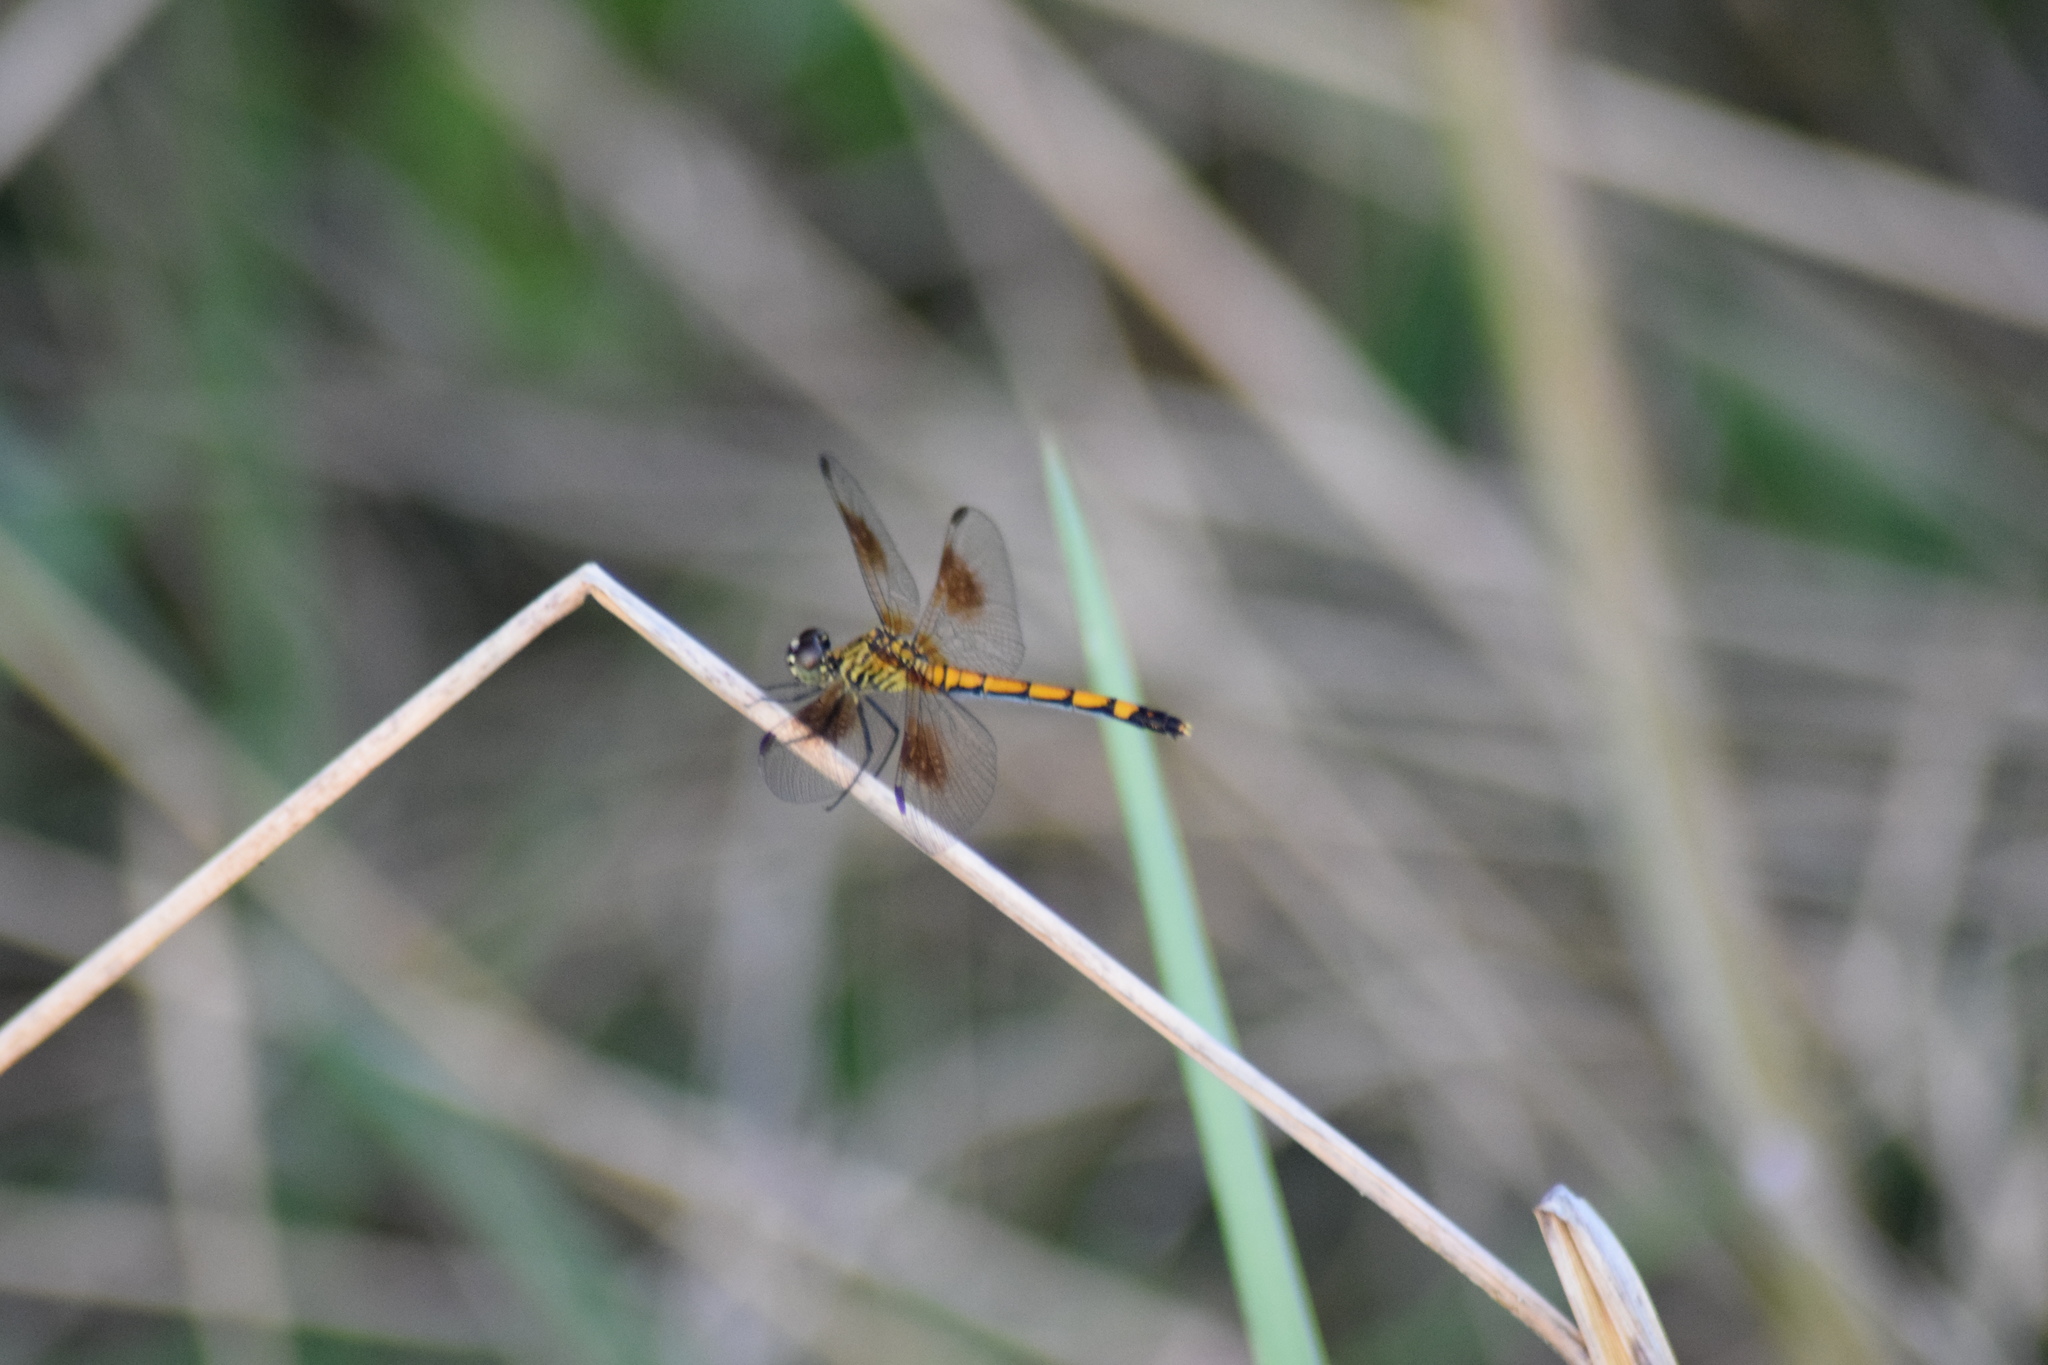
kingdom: Animalia
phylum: Arthropoda
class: Insecta
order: Odonata
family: Libellulidae
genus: Erythrodiplax
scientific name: Erythrodiplax berenice
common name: Seaside dragonlet
